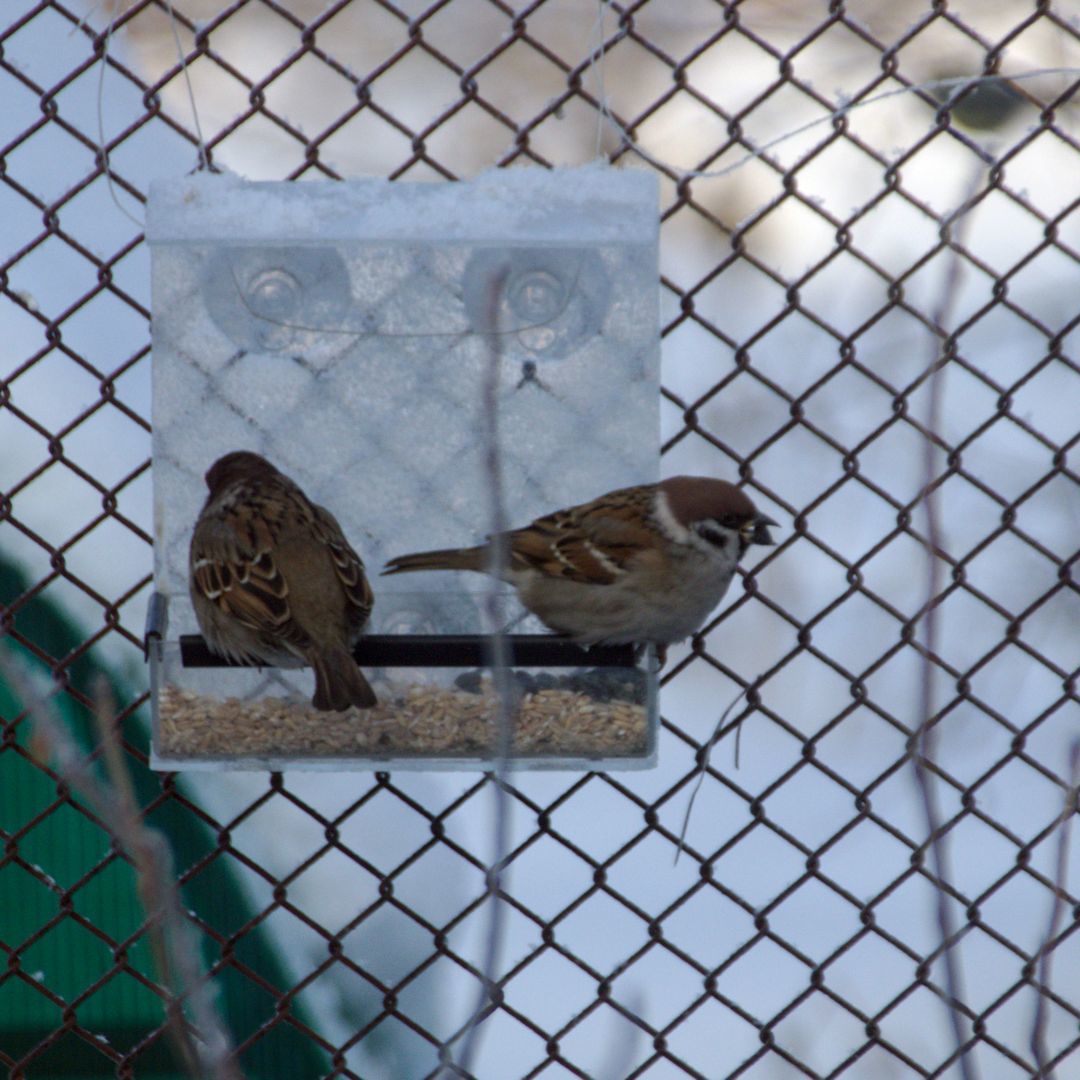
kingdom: Animalia
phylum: Chordata
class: Aves
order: Passeriformes
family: Passeridae
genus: Passer
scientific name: Passer montanus
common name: Eurasian tree sparrow
